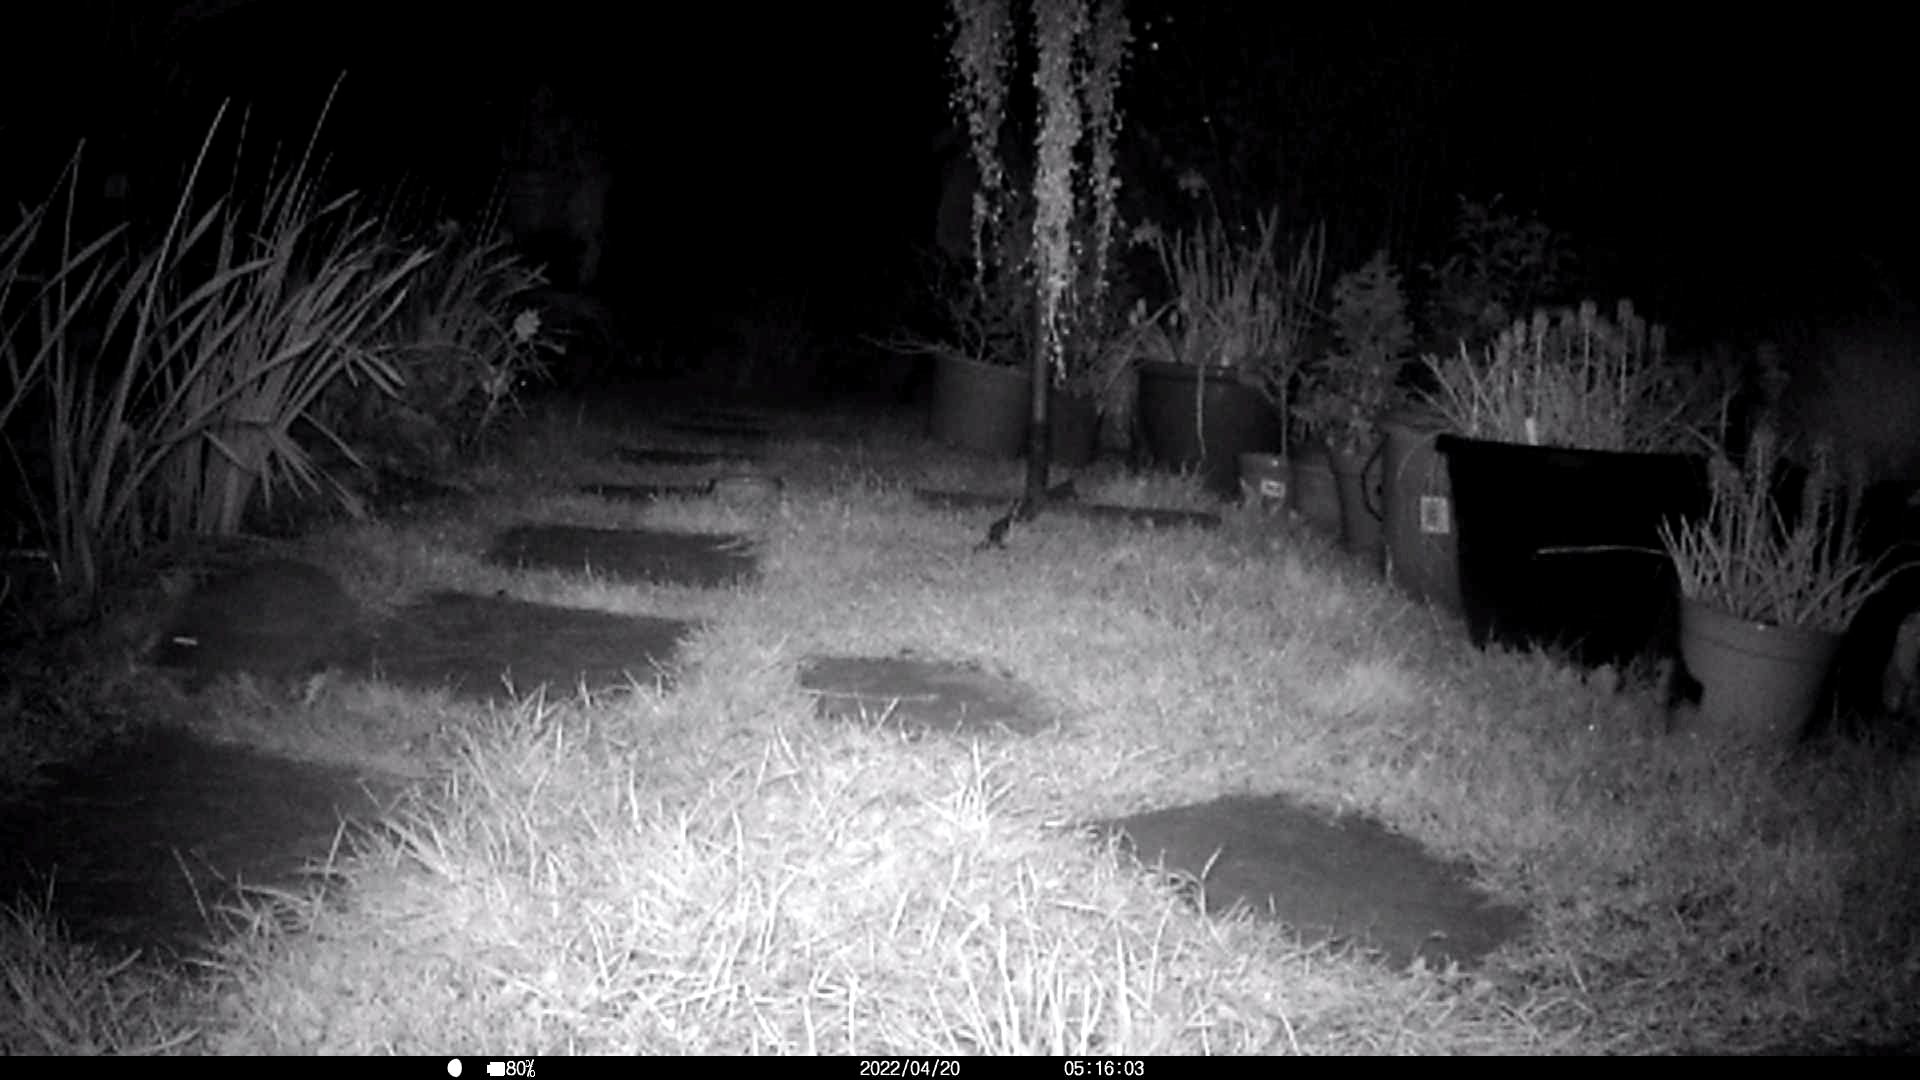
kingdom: Animalia
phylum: Chordata
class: Mammalia
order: Erinaceomorpha
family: Erinaceidae
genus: Erinaceus
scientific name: Erinaceus europaeus
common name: West european hedgehog
